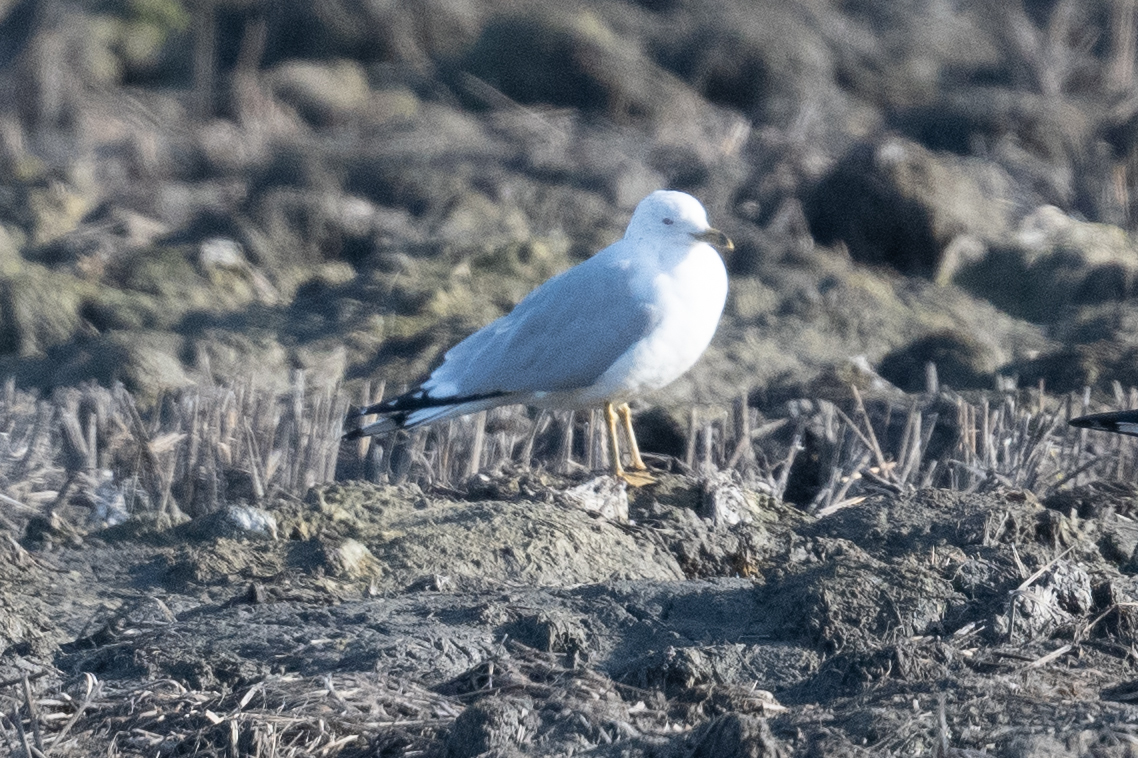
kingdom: Animalia
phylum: Chordata
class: Aves
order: Charadriiformes
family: Laridae
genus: Larus
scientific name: Larus delawarensis
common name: Ring-billed gull
